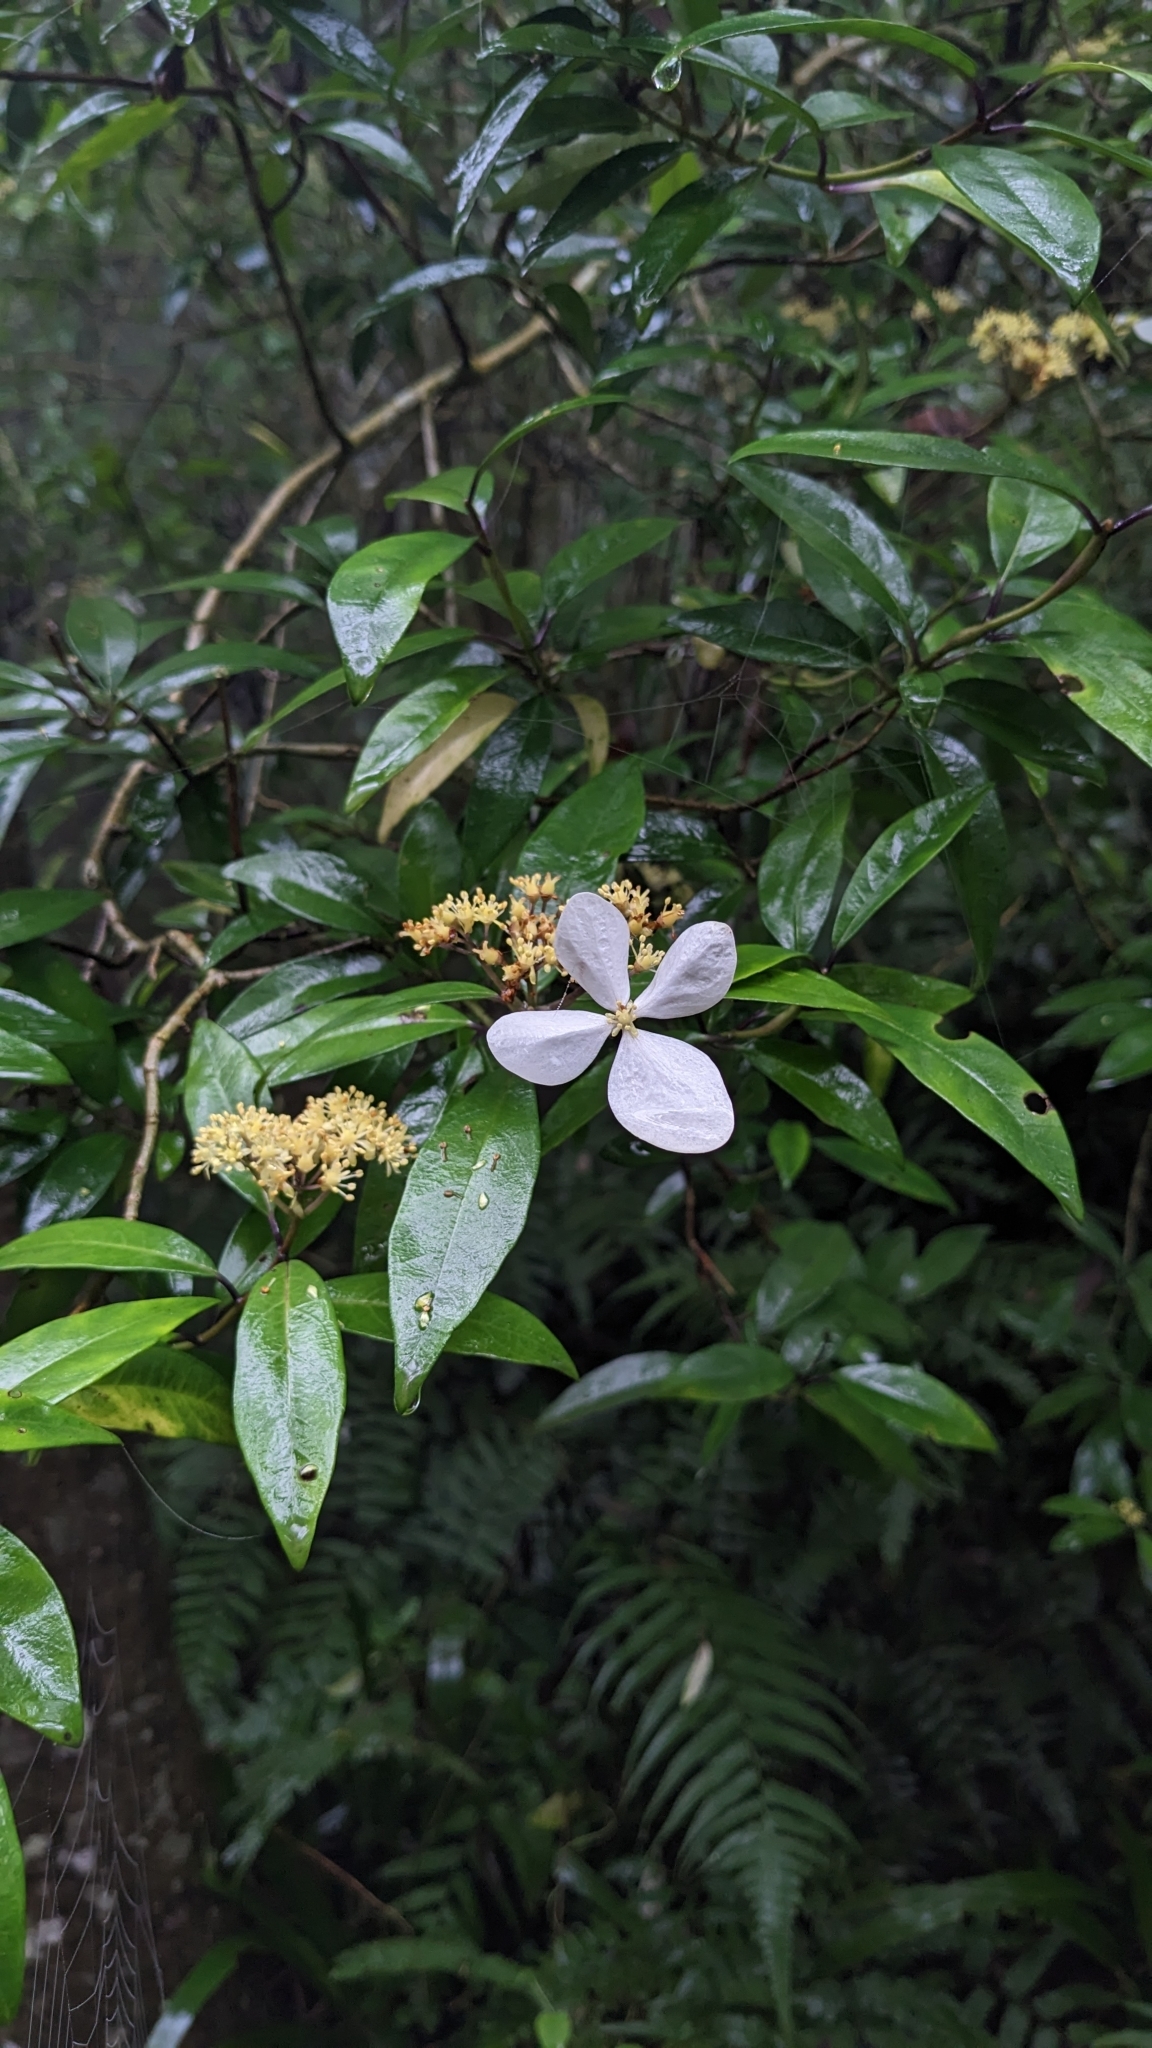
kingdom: Plantae
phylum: Tracheophyta
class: Magnoliopsida
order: Cornales
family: Hydrangeaceae
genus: Hydrangea
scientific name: Hydrangea chinensis
